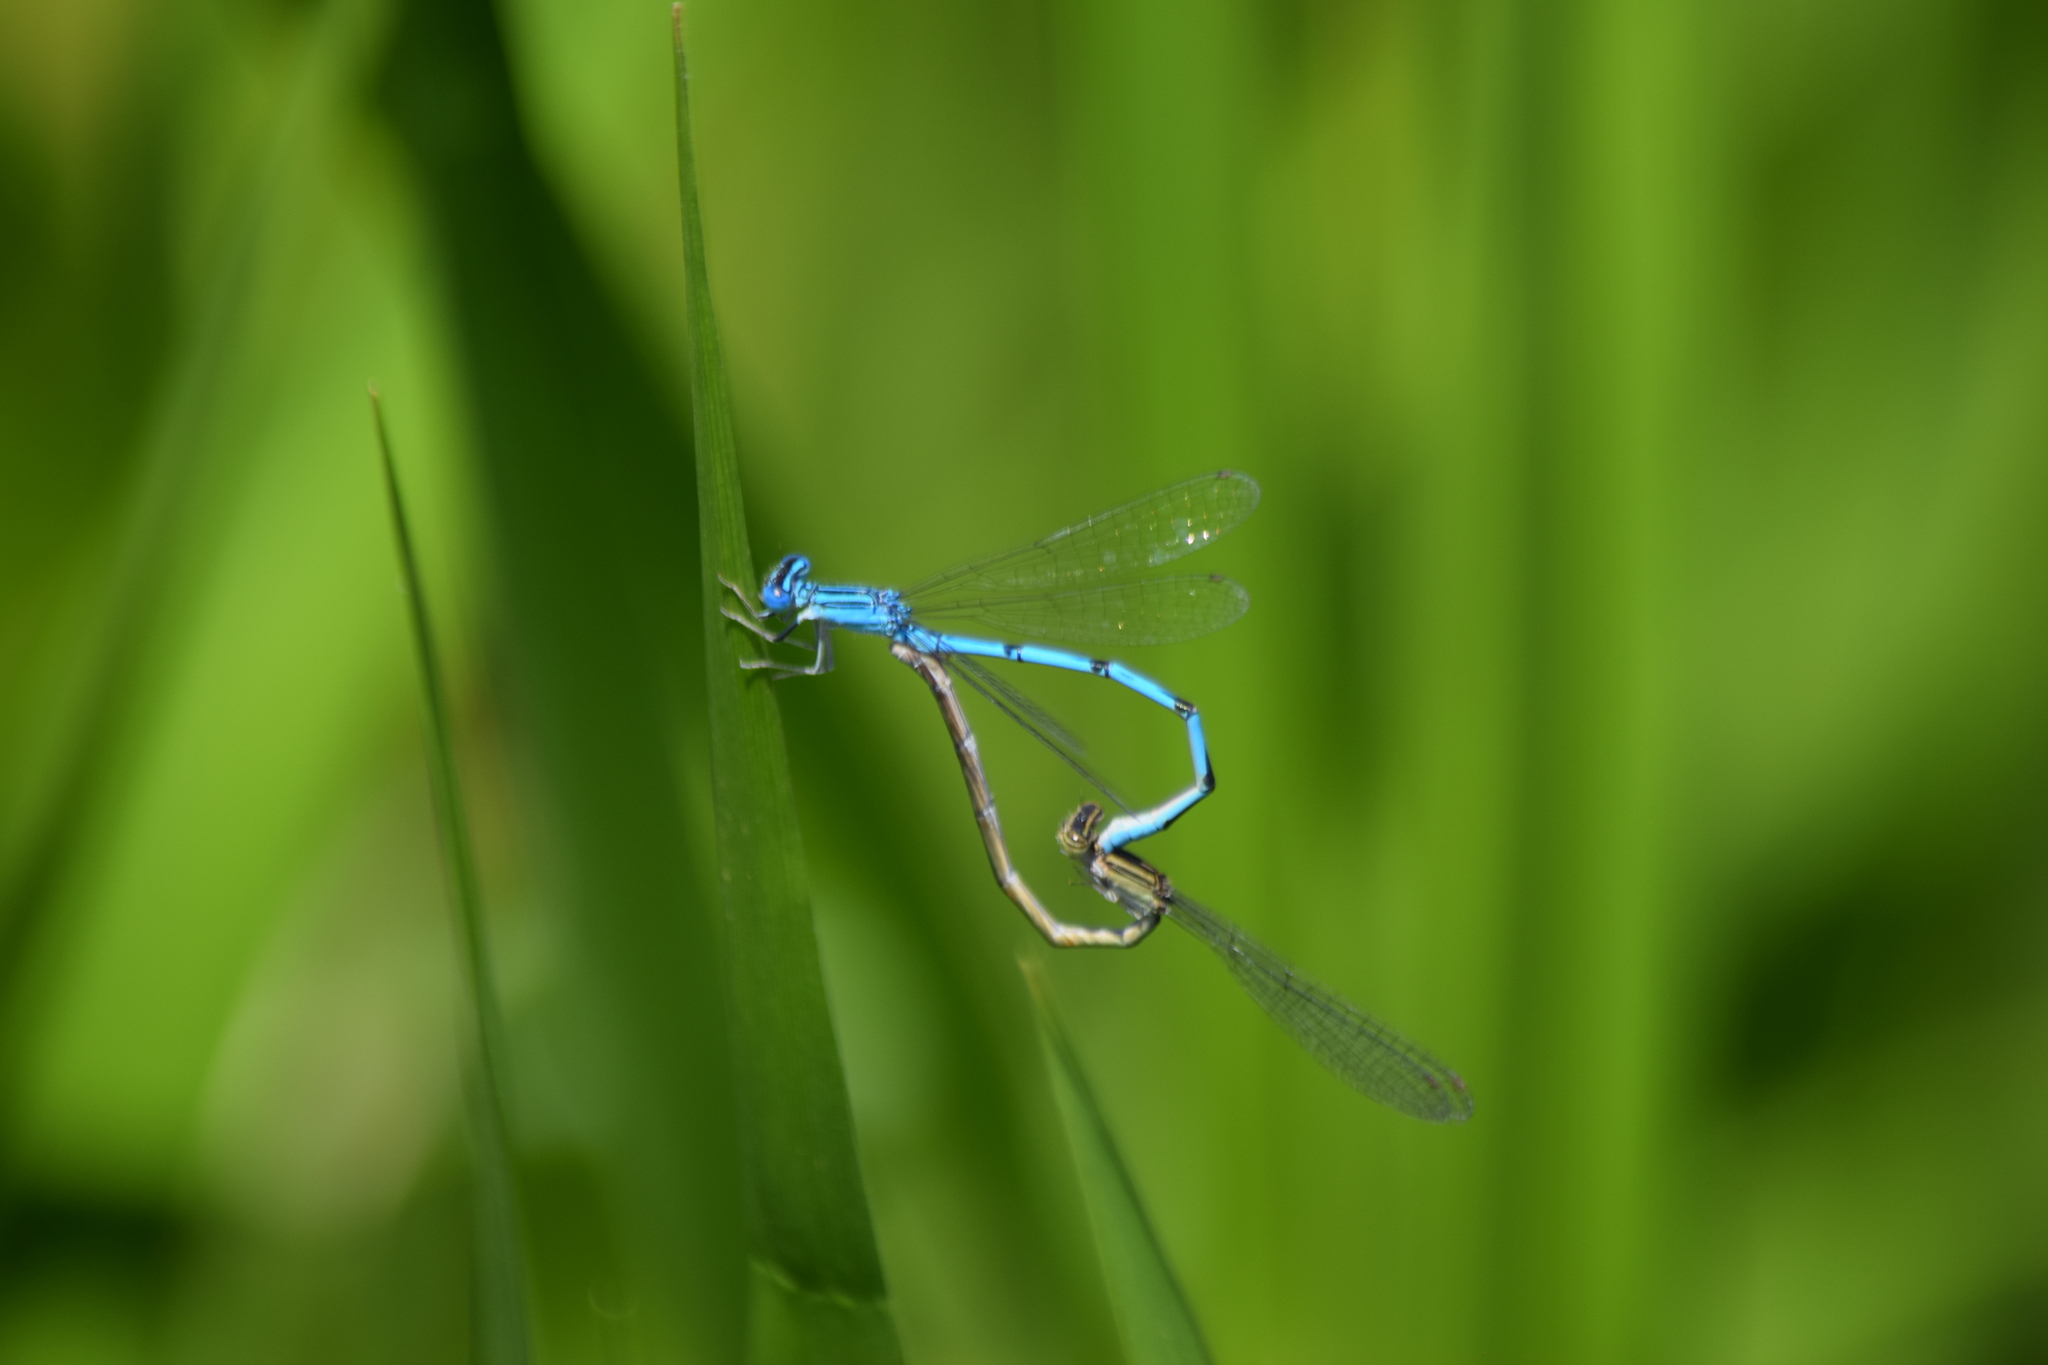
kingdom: Animalia
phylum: Arthropoda
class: Insecta
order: Odonata
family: Coenagrionidae
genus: Enallagma
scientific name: Enallagma basidens
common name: Double-striped bluet
